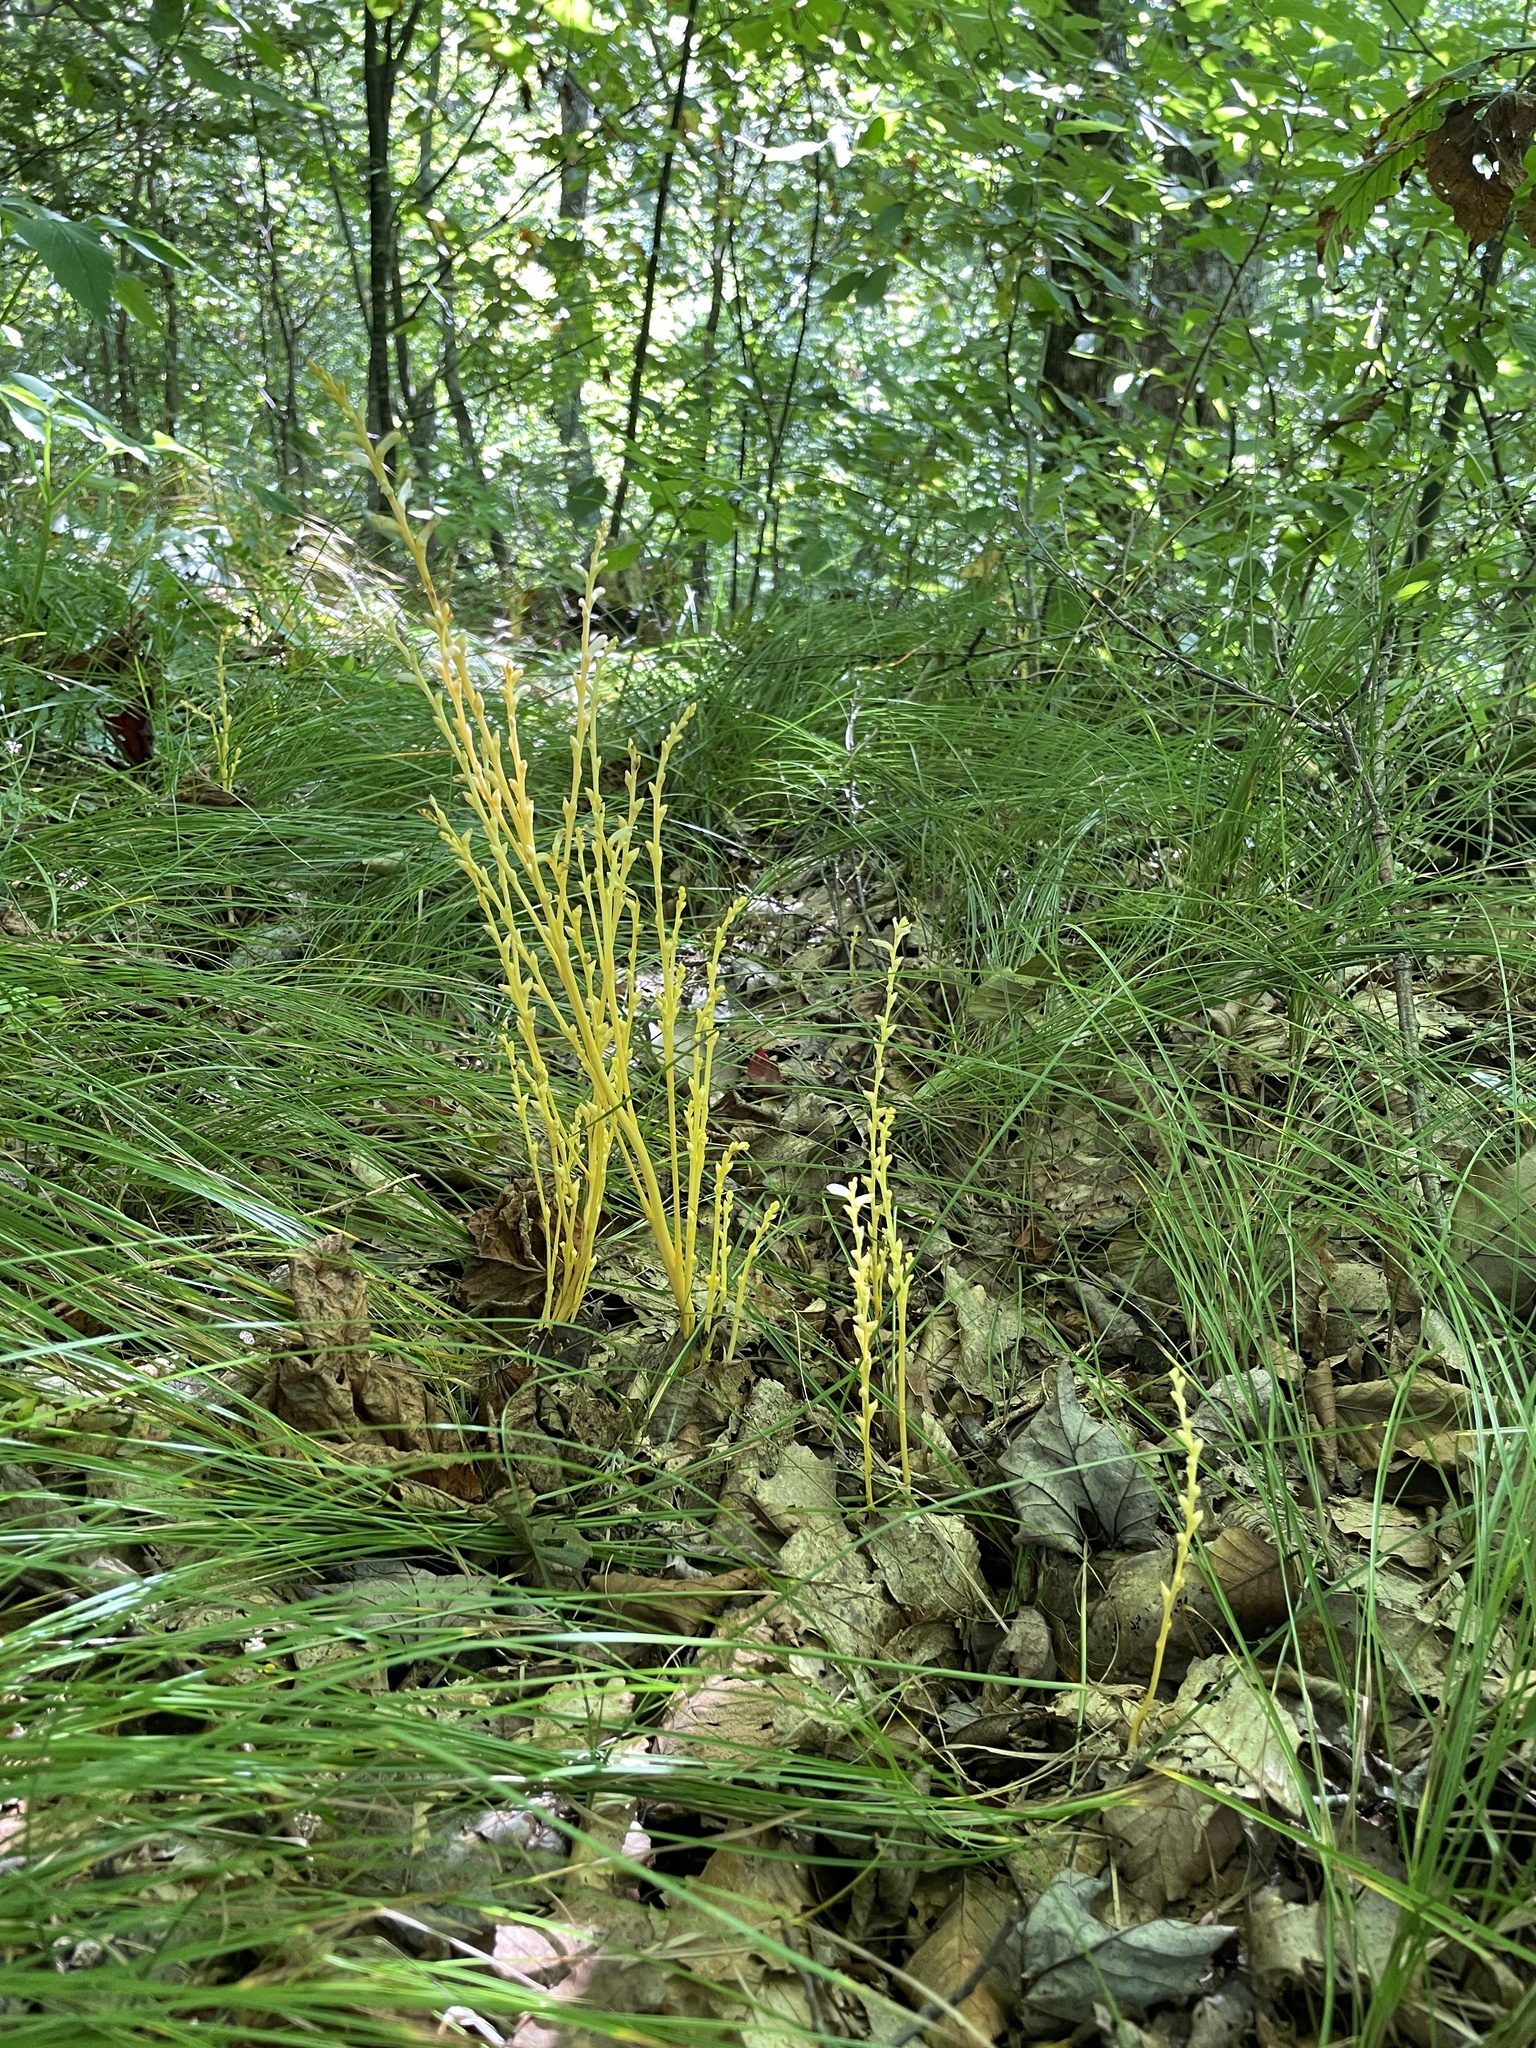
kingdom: Plantae
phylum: Tracheophyta
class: Magnoliopsida
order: Lamiales
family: Orobanchaceae
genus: Epifagus
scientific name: Epifagus virginiana
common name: Beechdrops
